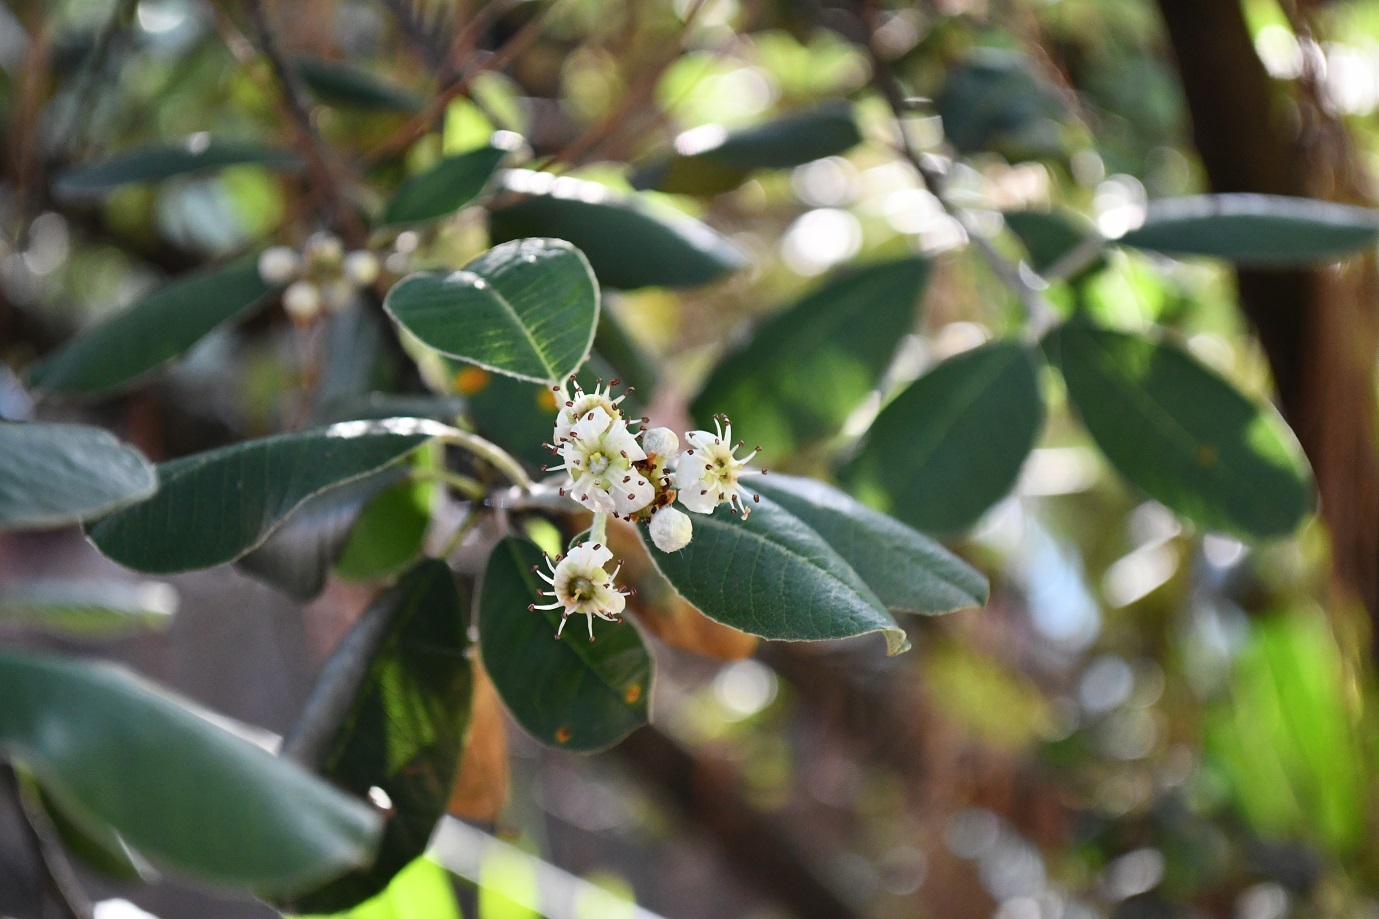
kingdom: Plantae
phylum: Tracheophyta
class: Magnoliopsida
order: Rosales
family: Rosaceae
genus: Malacomeles
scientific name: Malacomeles nervosa
